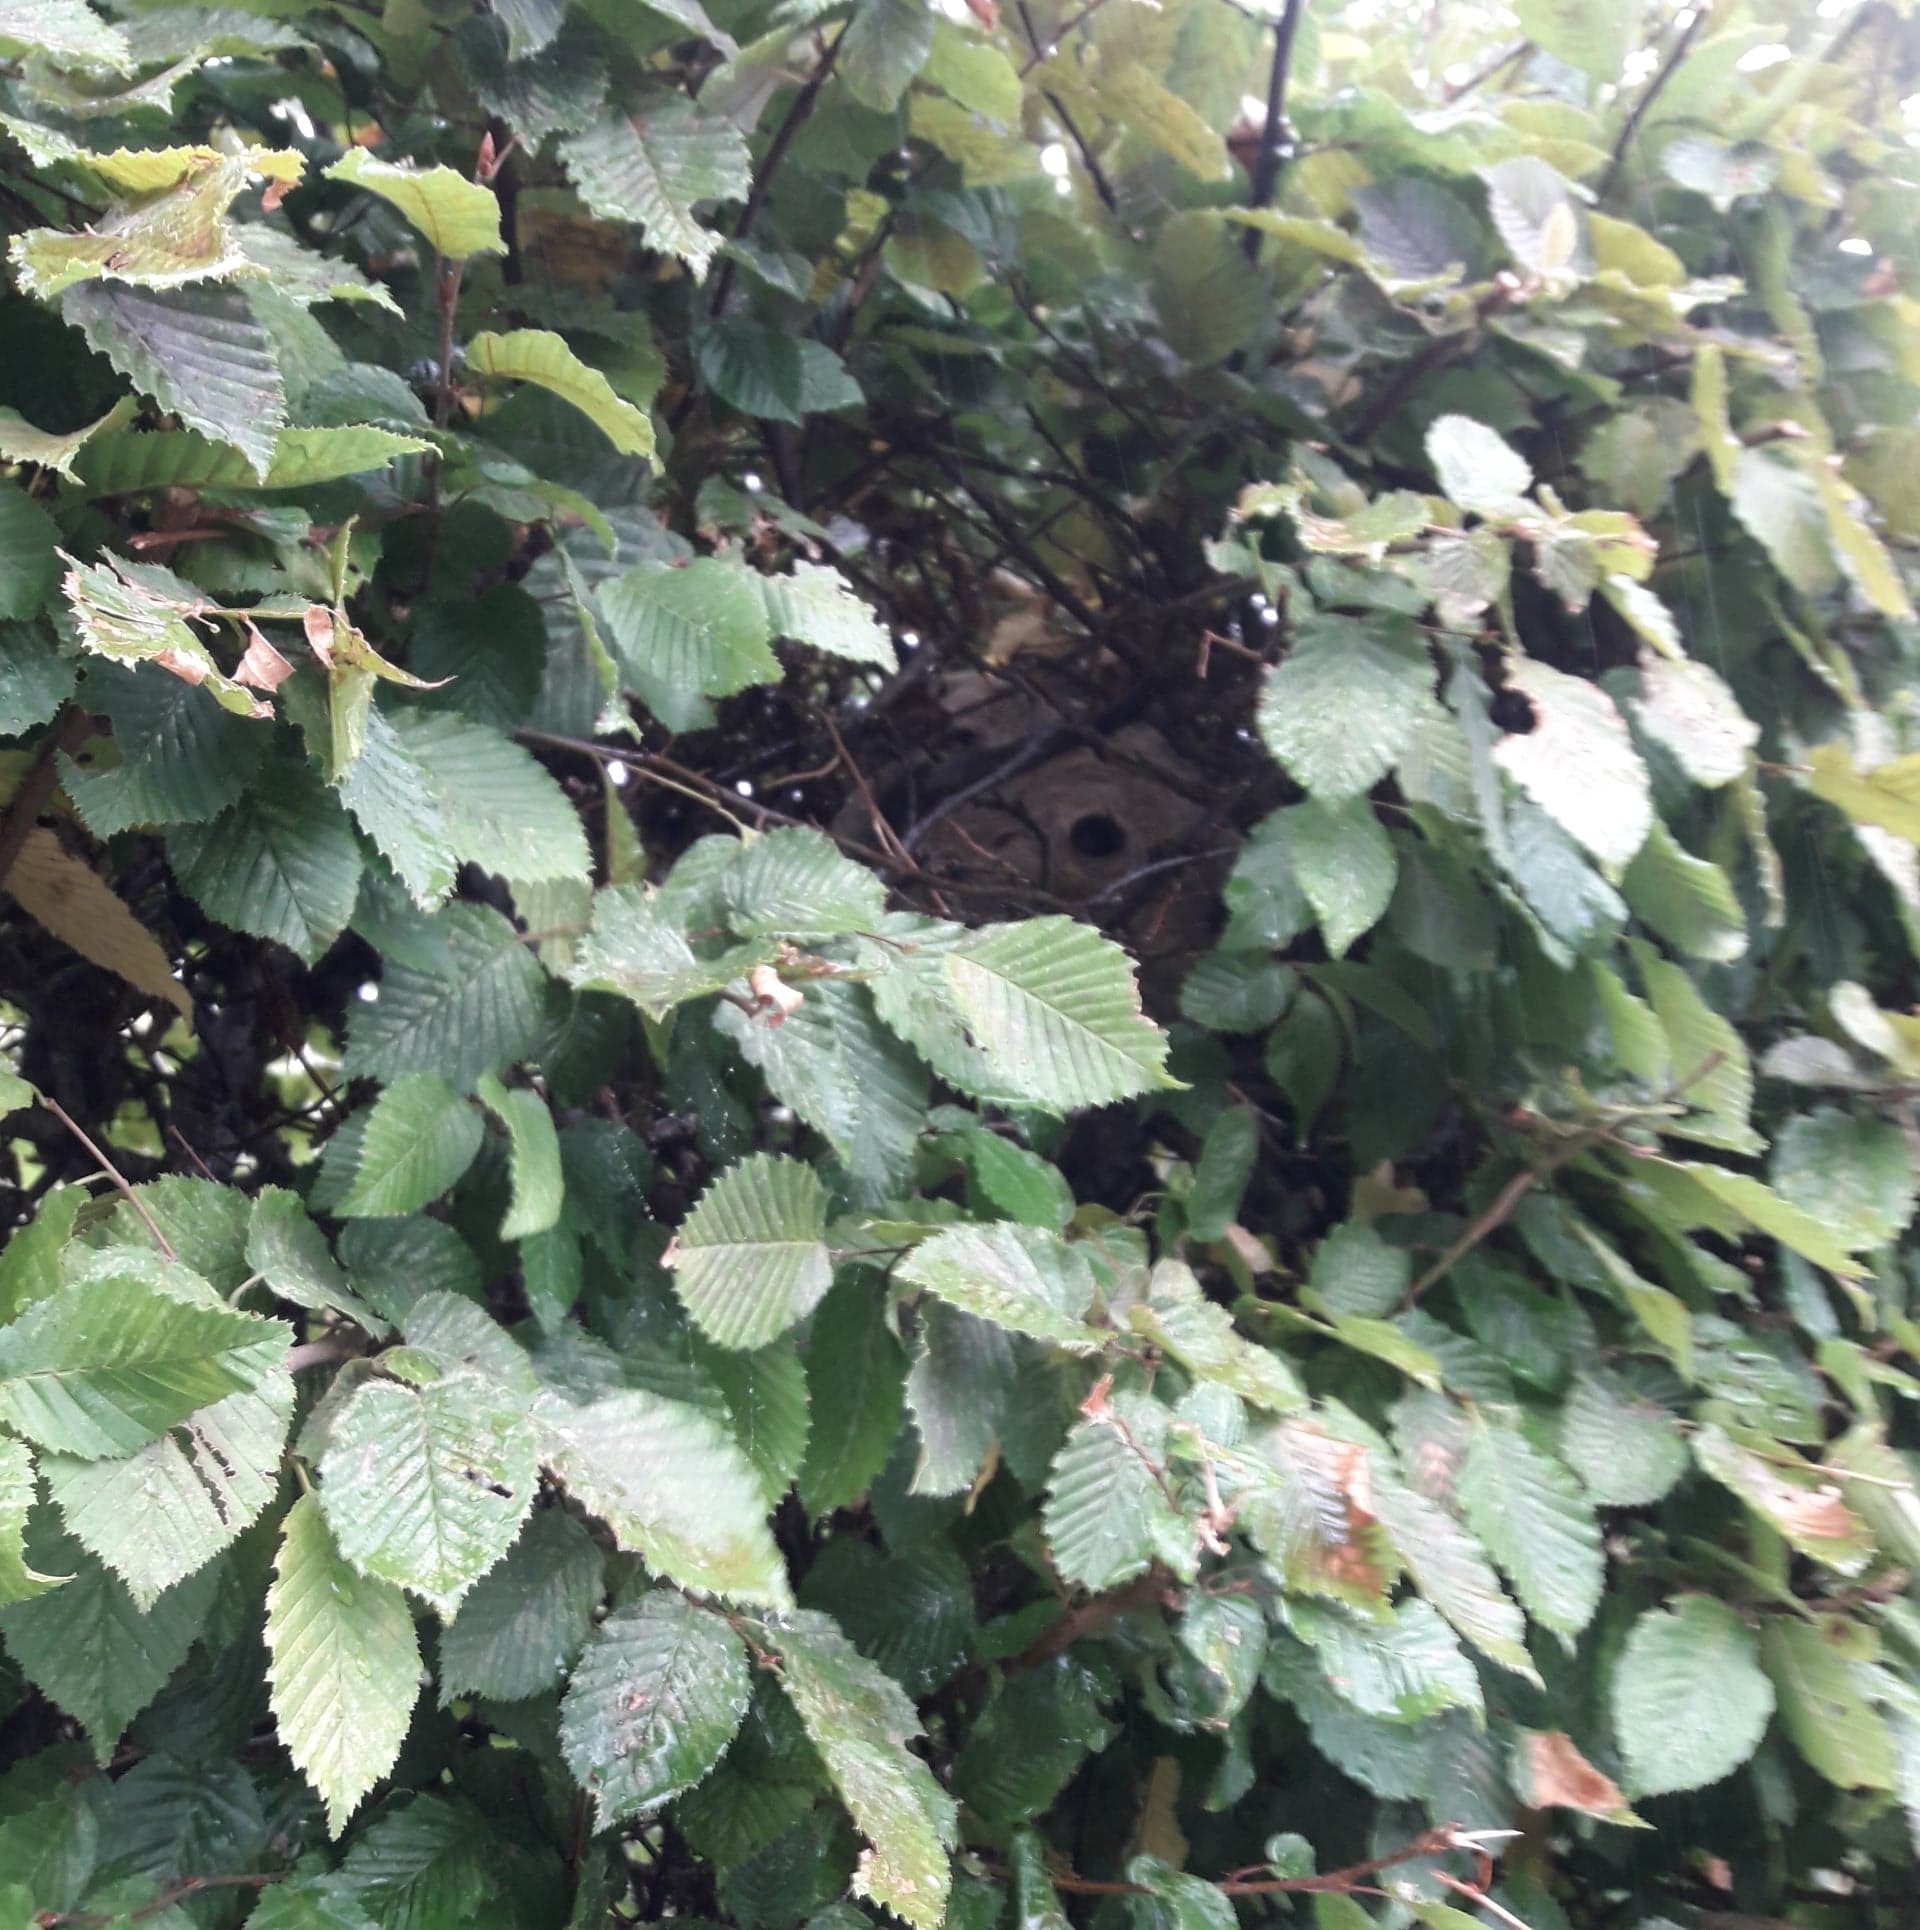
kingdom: Animalia
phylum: Arthropoda
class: Insecta
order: Hymenoptera
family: Vespidae
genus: Vespa
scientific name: Vespa velutina
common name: Asian hornet
